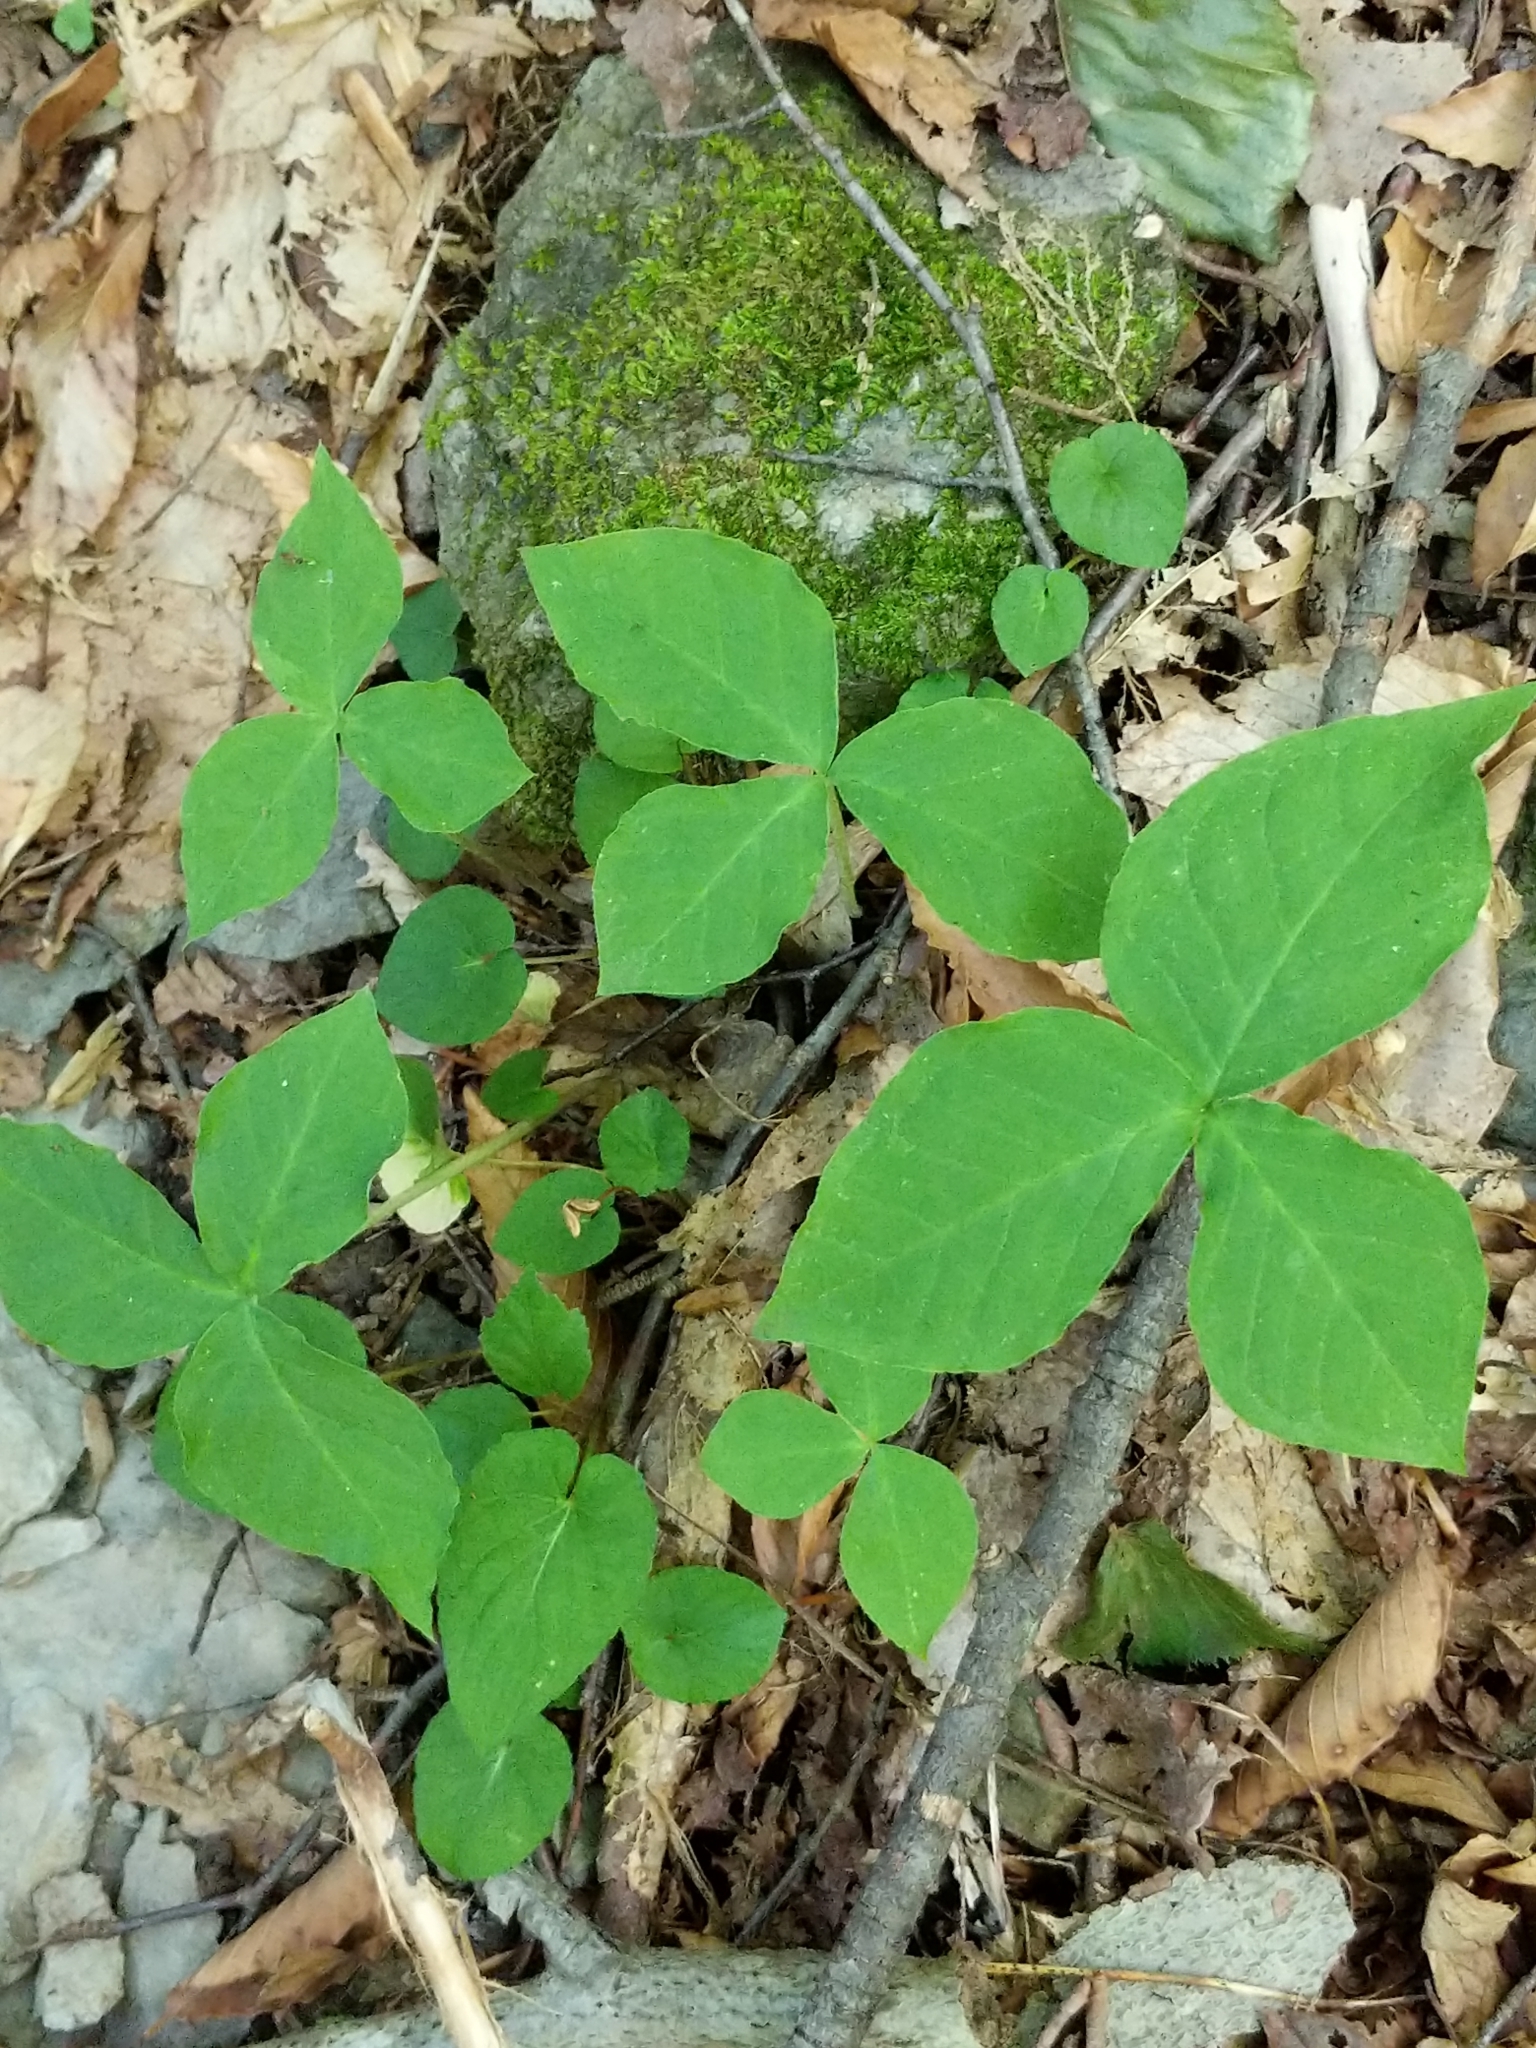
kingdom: Plantae
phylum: Tracheophyta
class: Liliopsida
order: Alismatales
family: Araceae
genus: Arisaema
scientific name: Arisaema triphyllum
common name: Jack-in-the-pulpit
